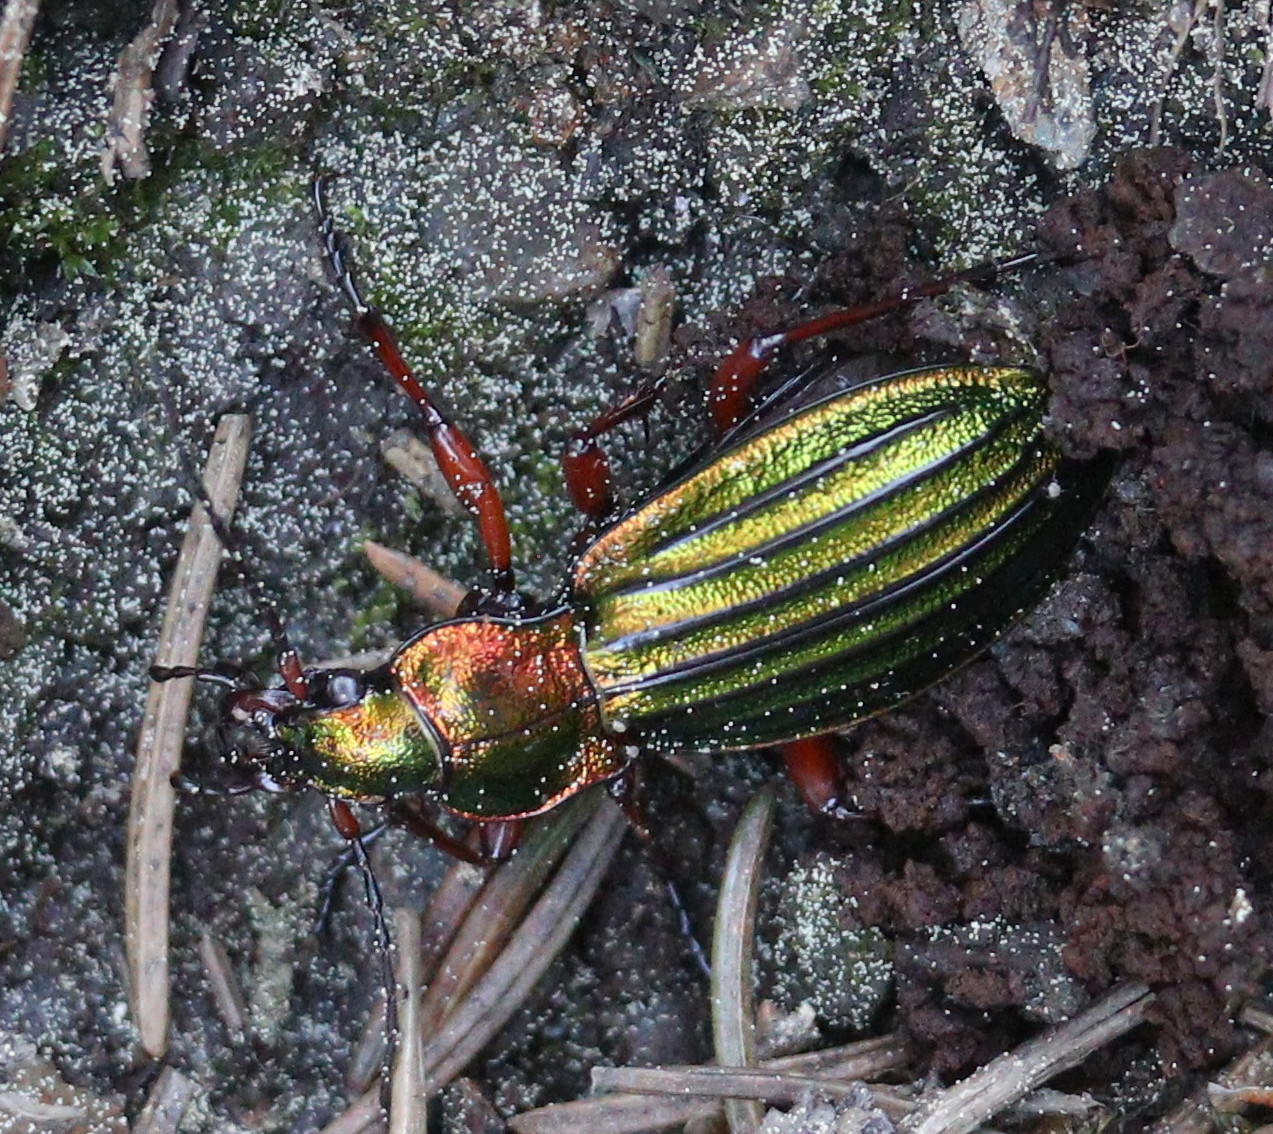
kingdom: Animalia
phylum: Arthropoda
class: Insecta
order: Coleoptera
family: Carabidae
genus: Carabus
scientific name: Carabus auronitens
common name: Carabus auronitens
